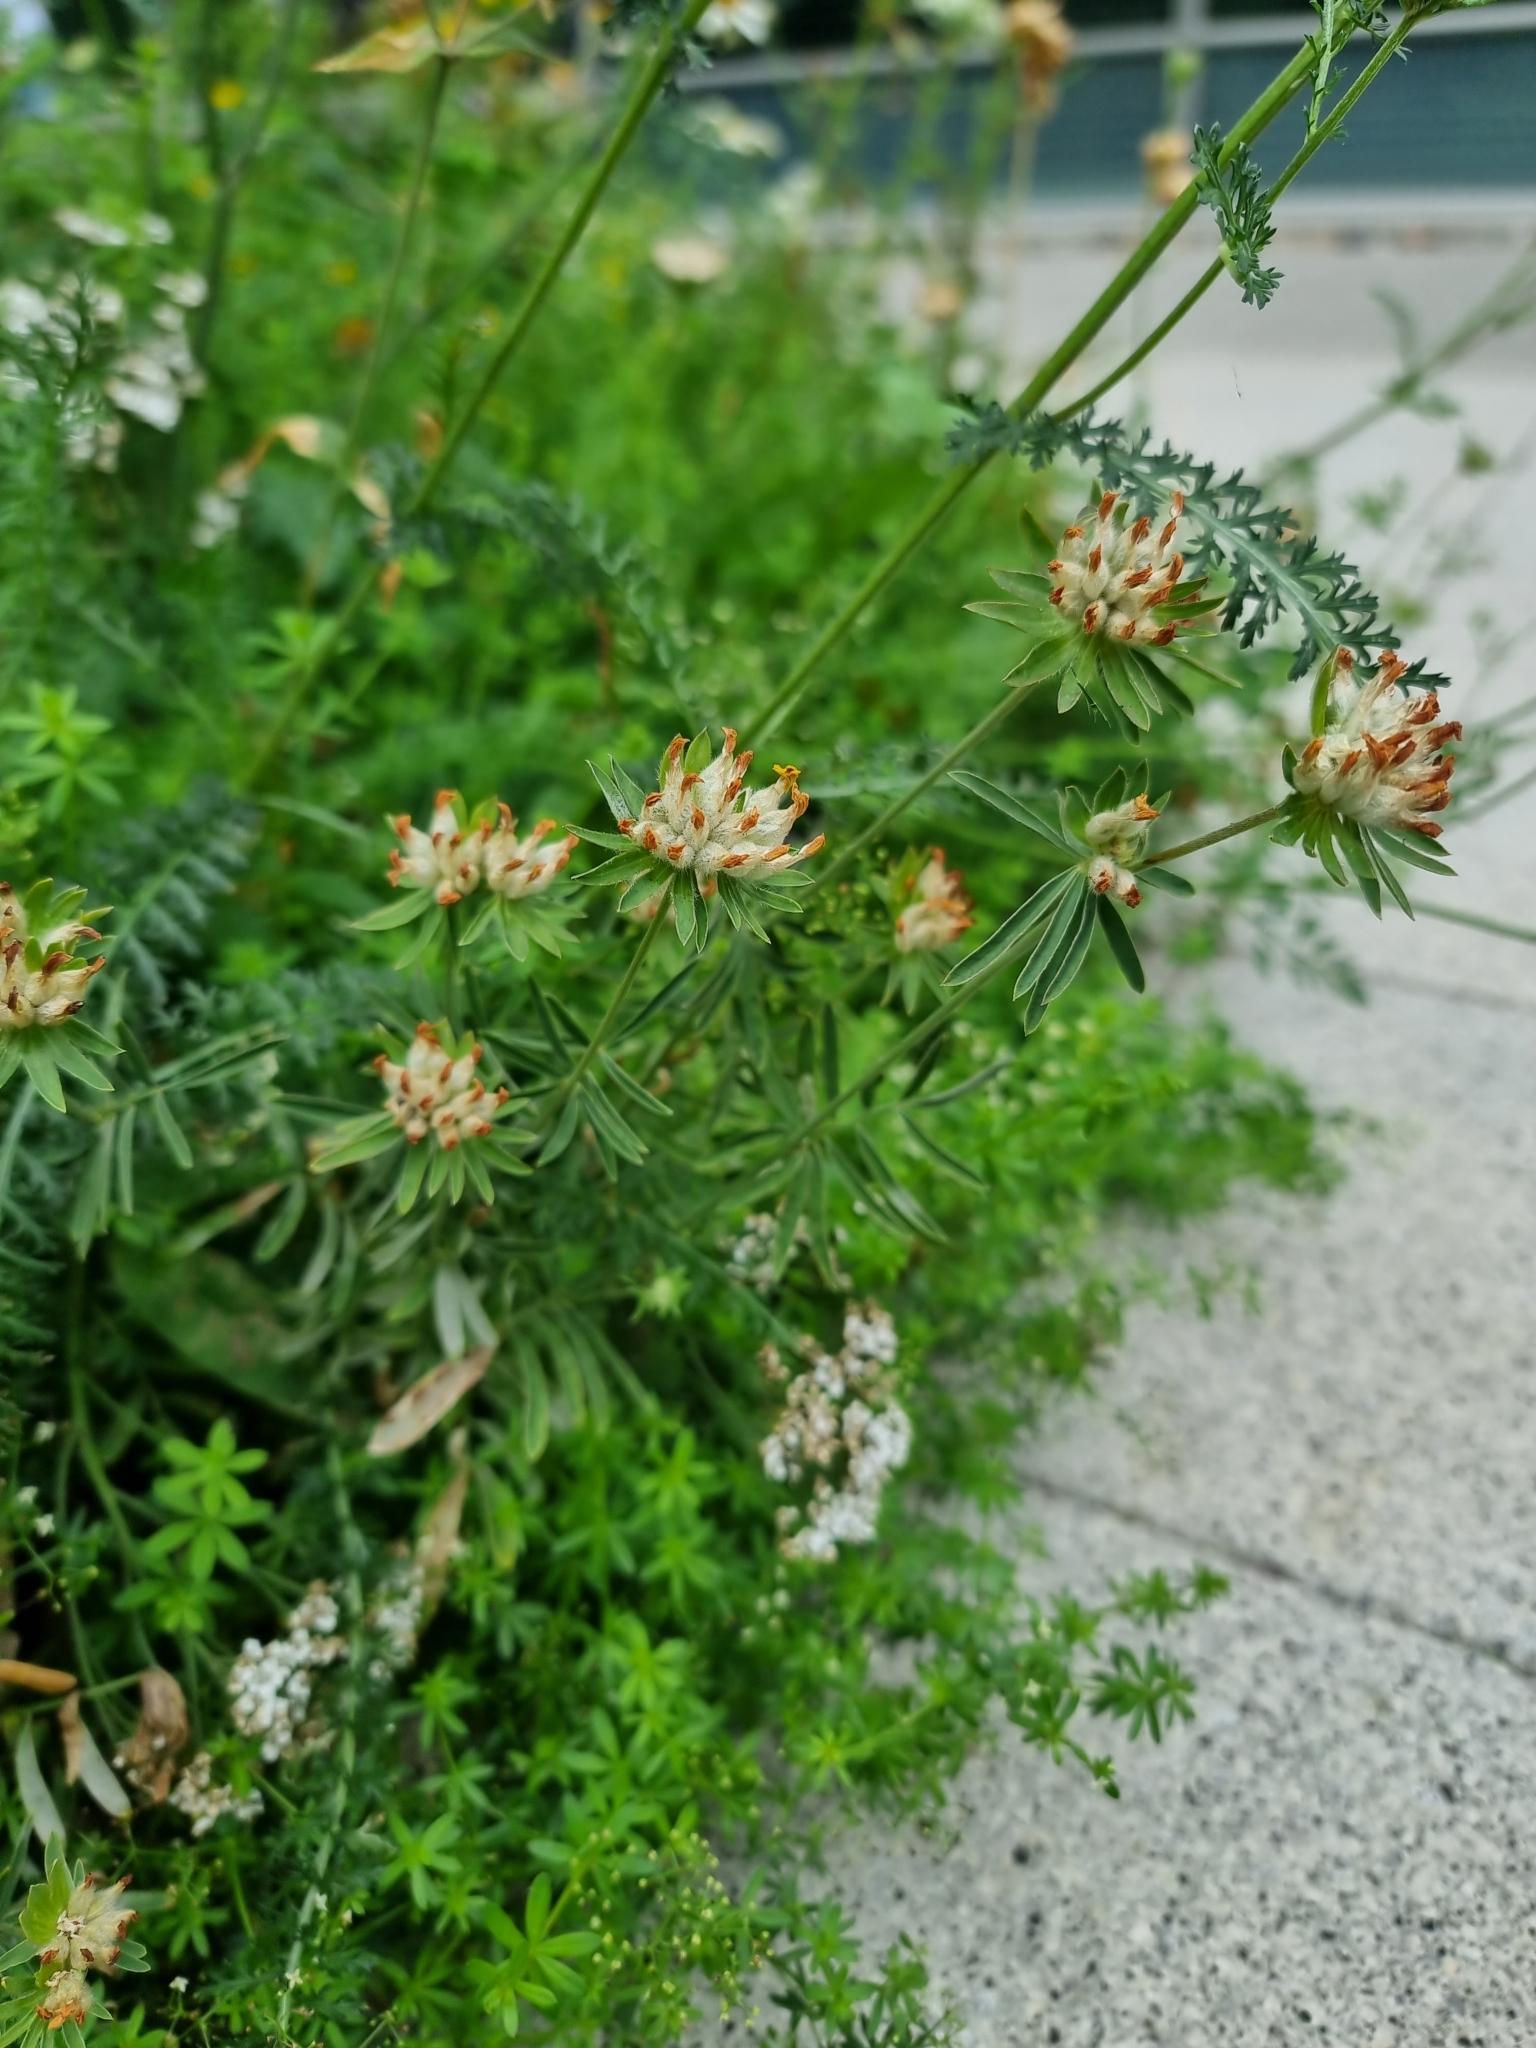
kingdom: Plantae
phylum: Tracheophyta
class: Magnoliopsida
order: Fabales
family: Fabaceae
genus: Anthyllis
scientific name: Anthyllis vulneraria
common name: Kidney vetch
